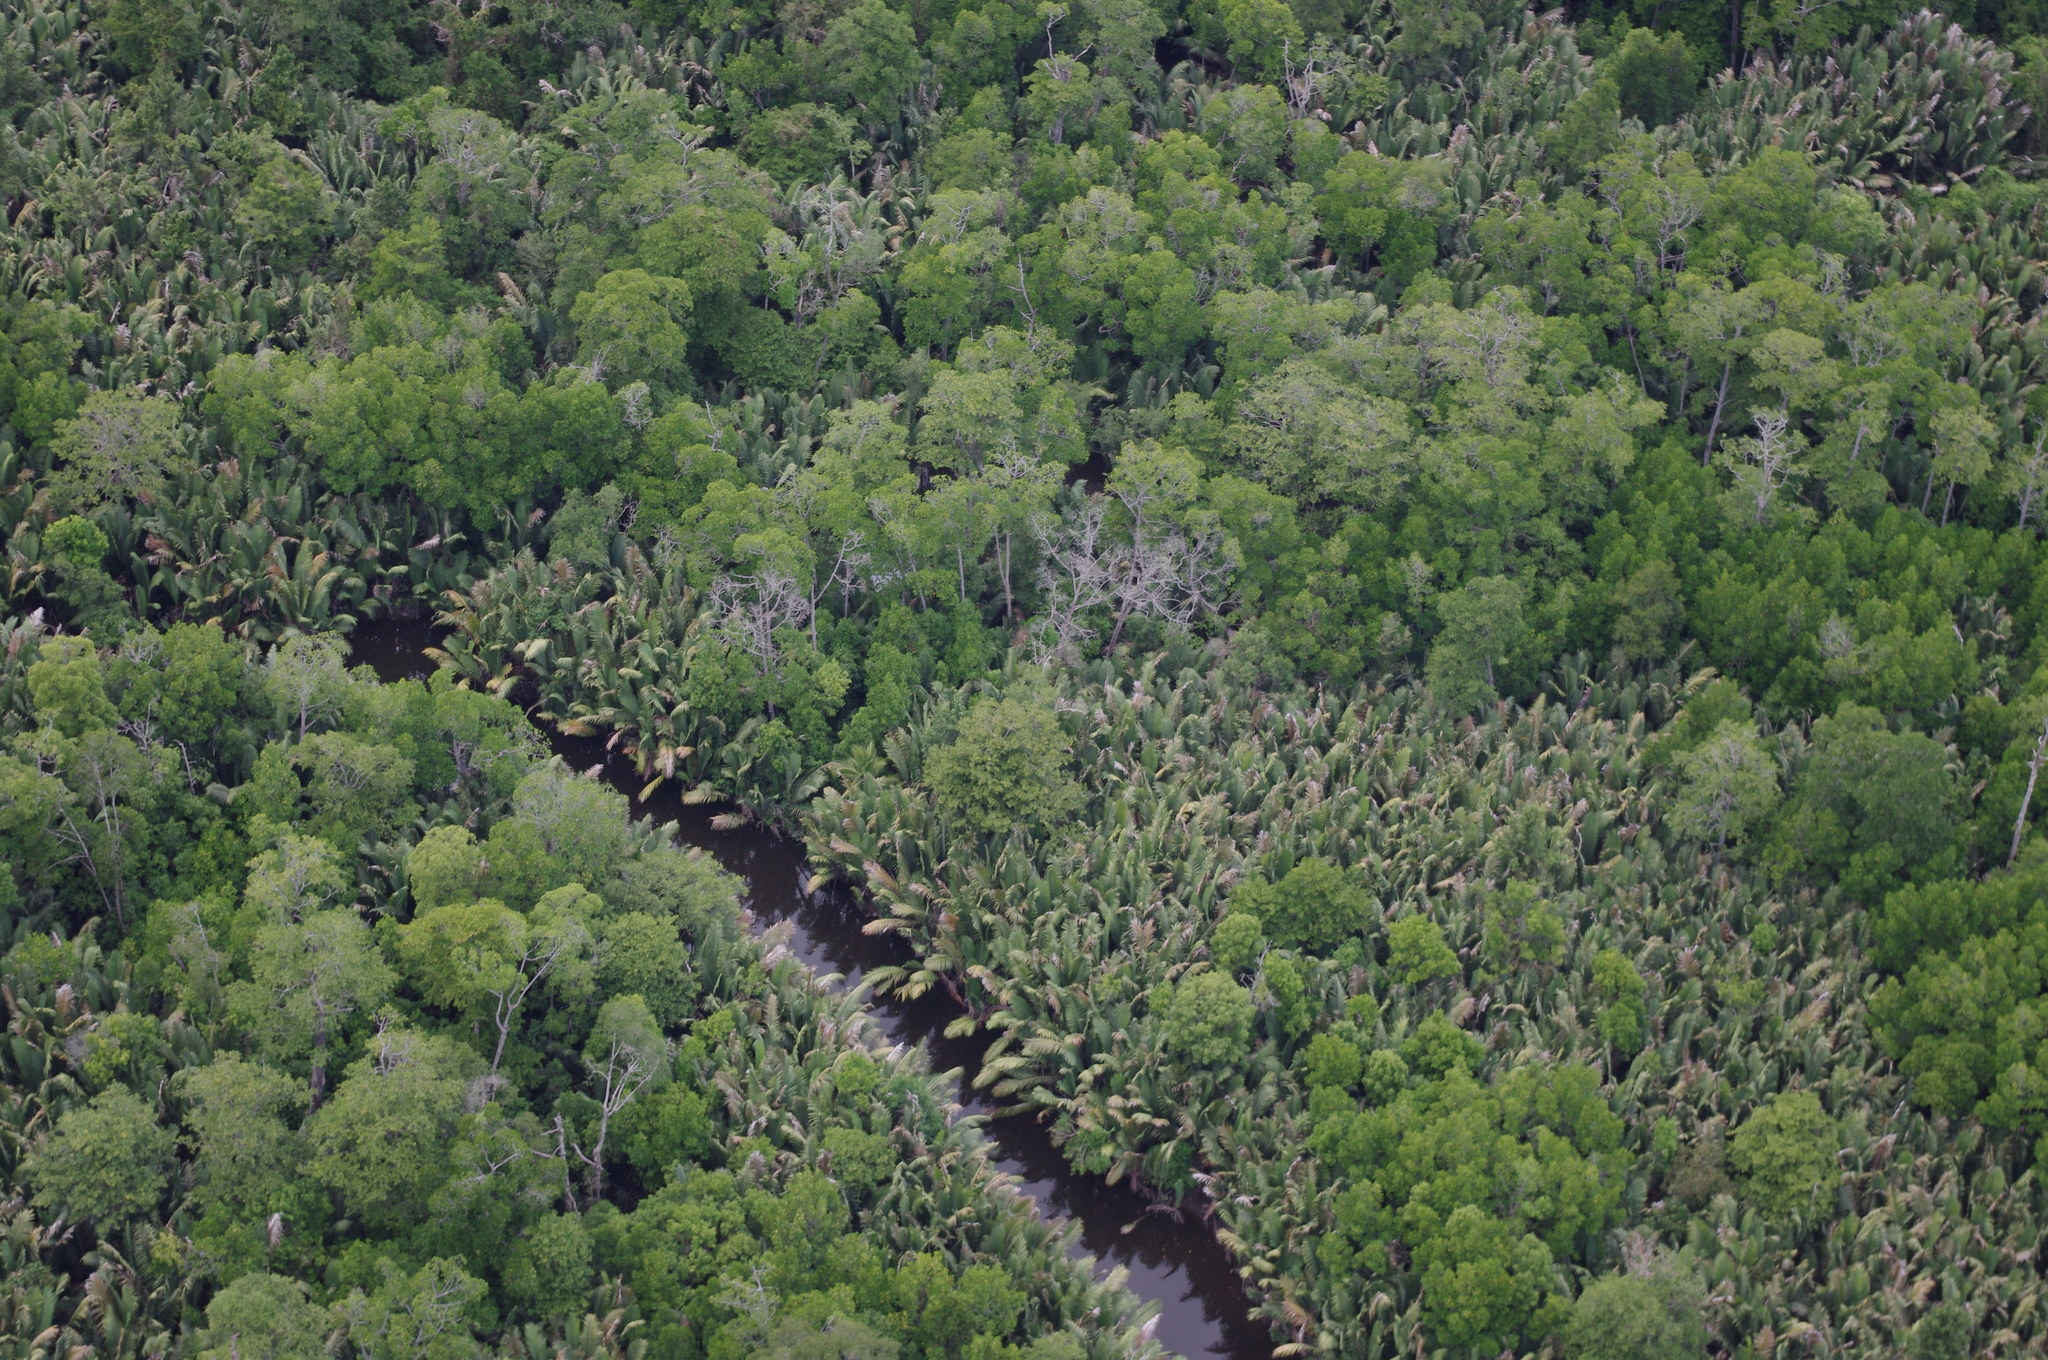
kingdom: Plantae
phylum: Tracheophyta
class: Liliopsida
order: Arecales
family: Arecaceae
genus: Nypa
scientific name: Nypa fruticans
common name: Mangrove palm
